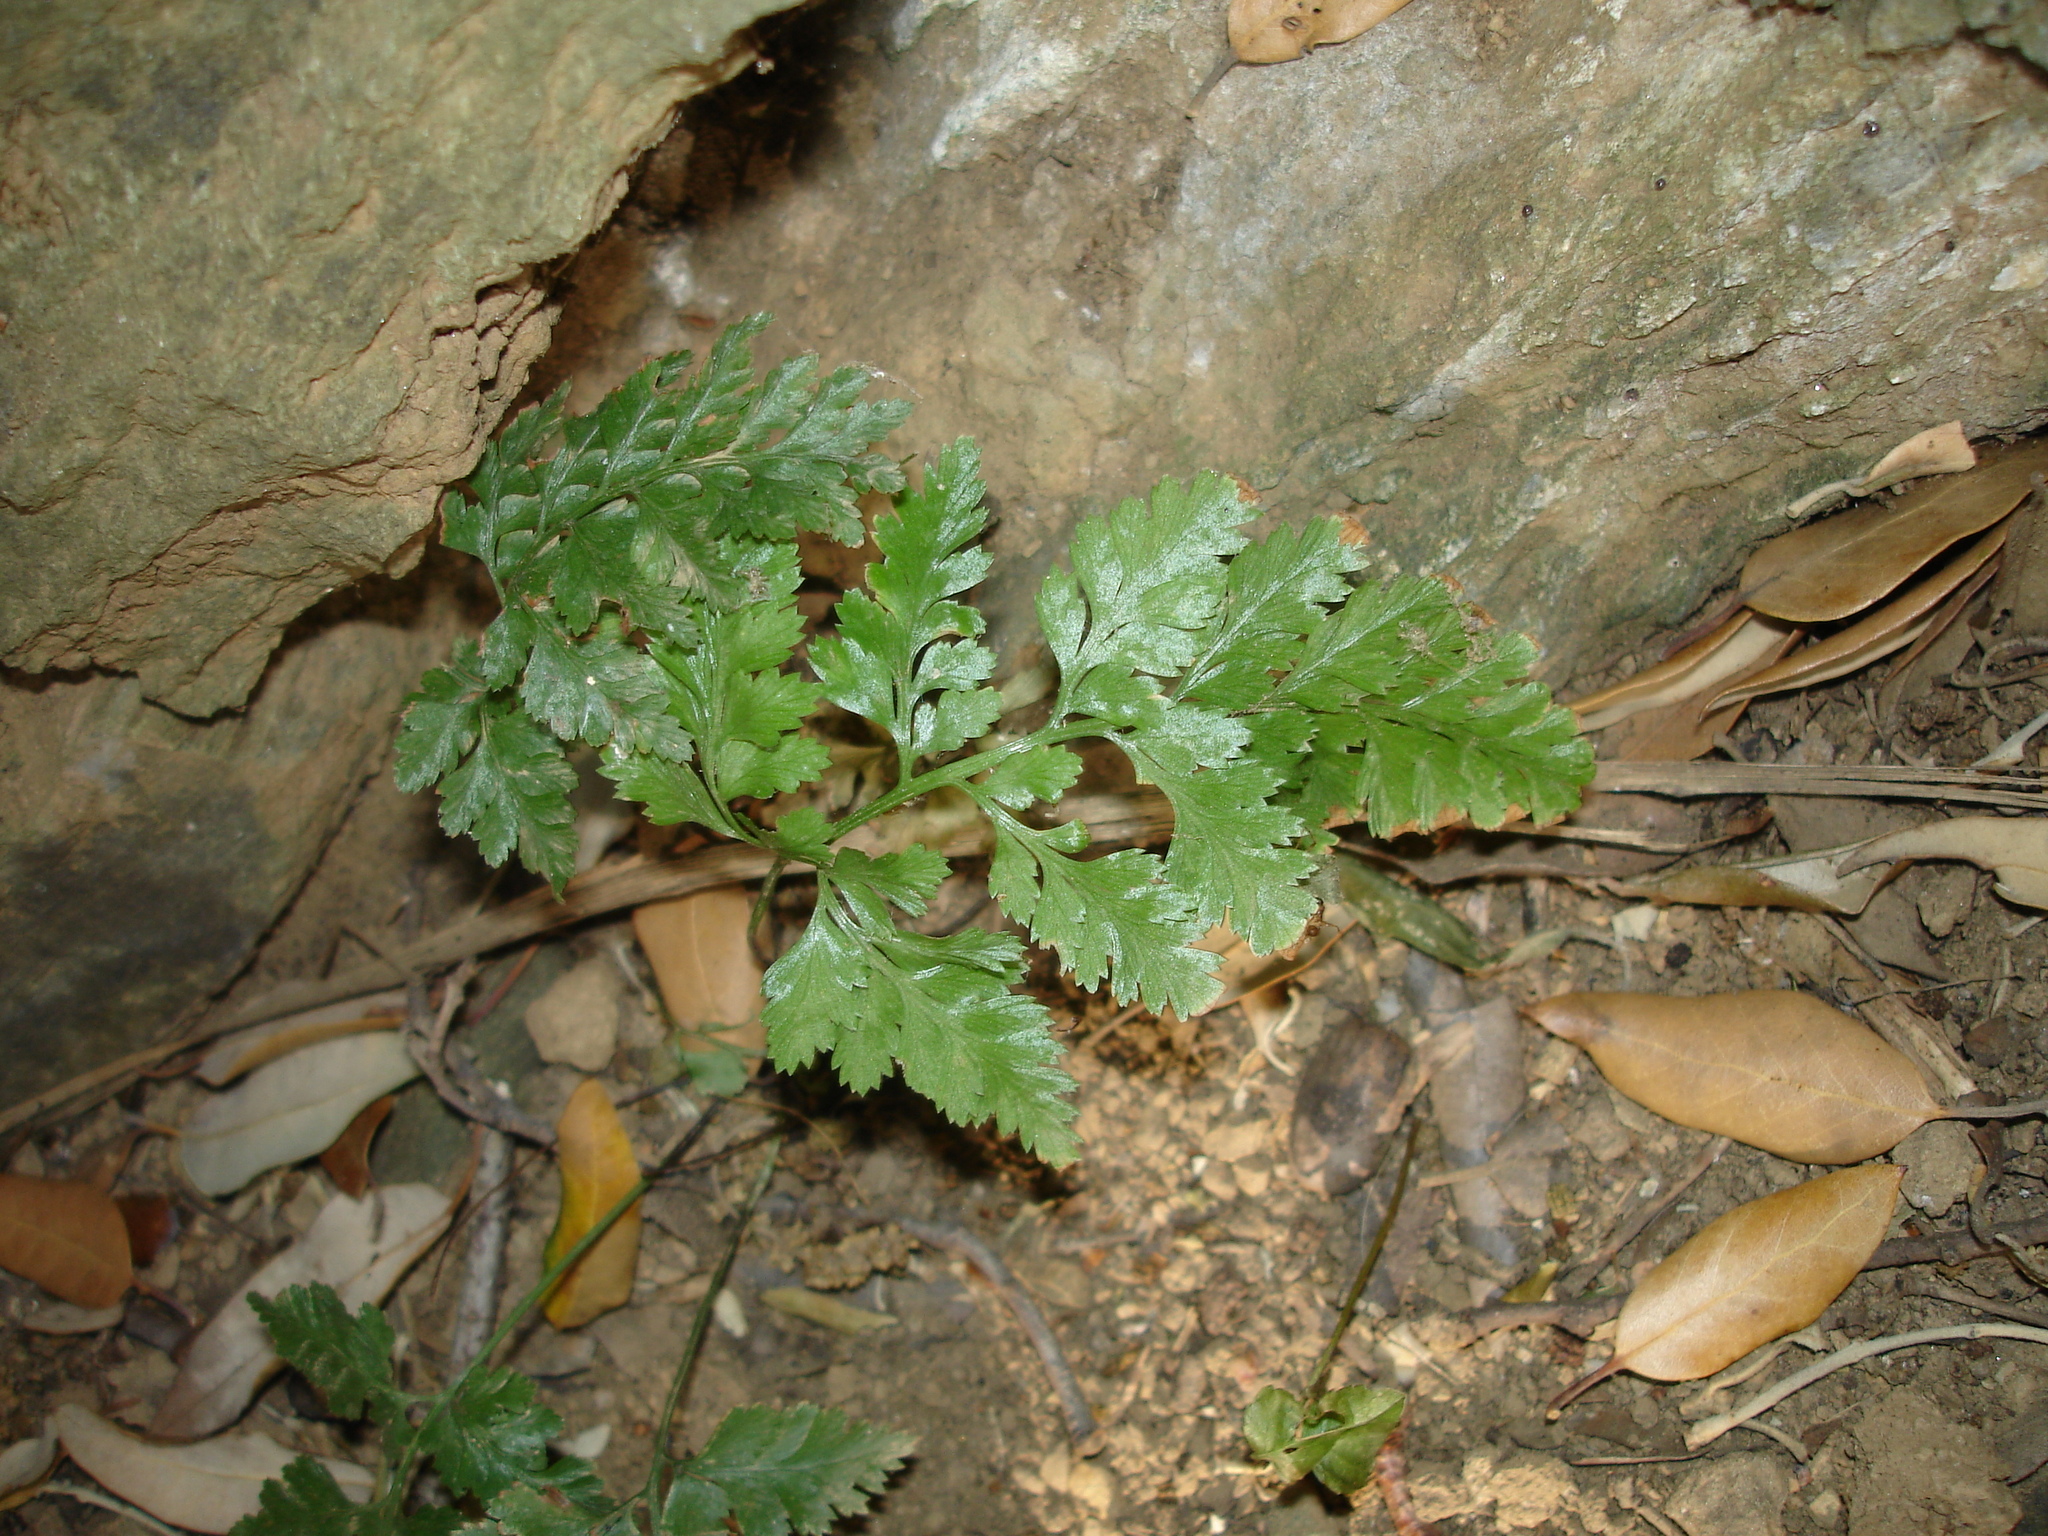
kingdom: Plantae
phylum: Tracheophyta
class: Polypodiopsida
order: Polypodiales
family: Aspleniaceae
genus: Asplenium
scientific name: Asplenium onopteris
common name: Irish spleenwort
